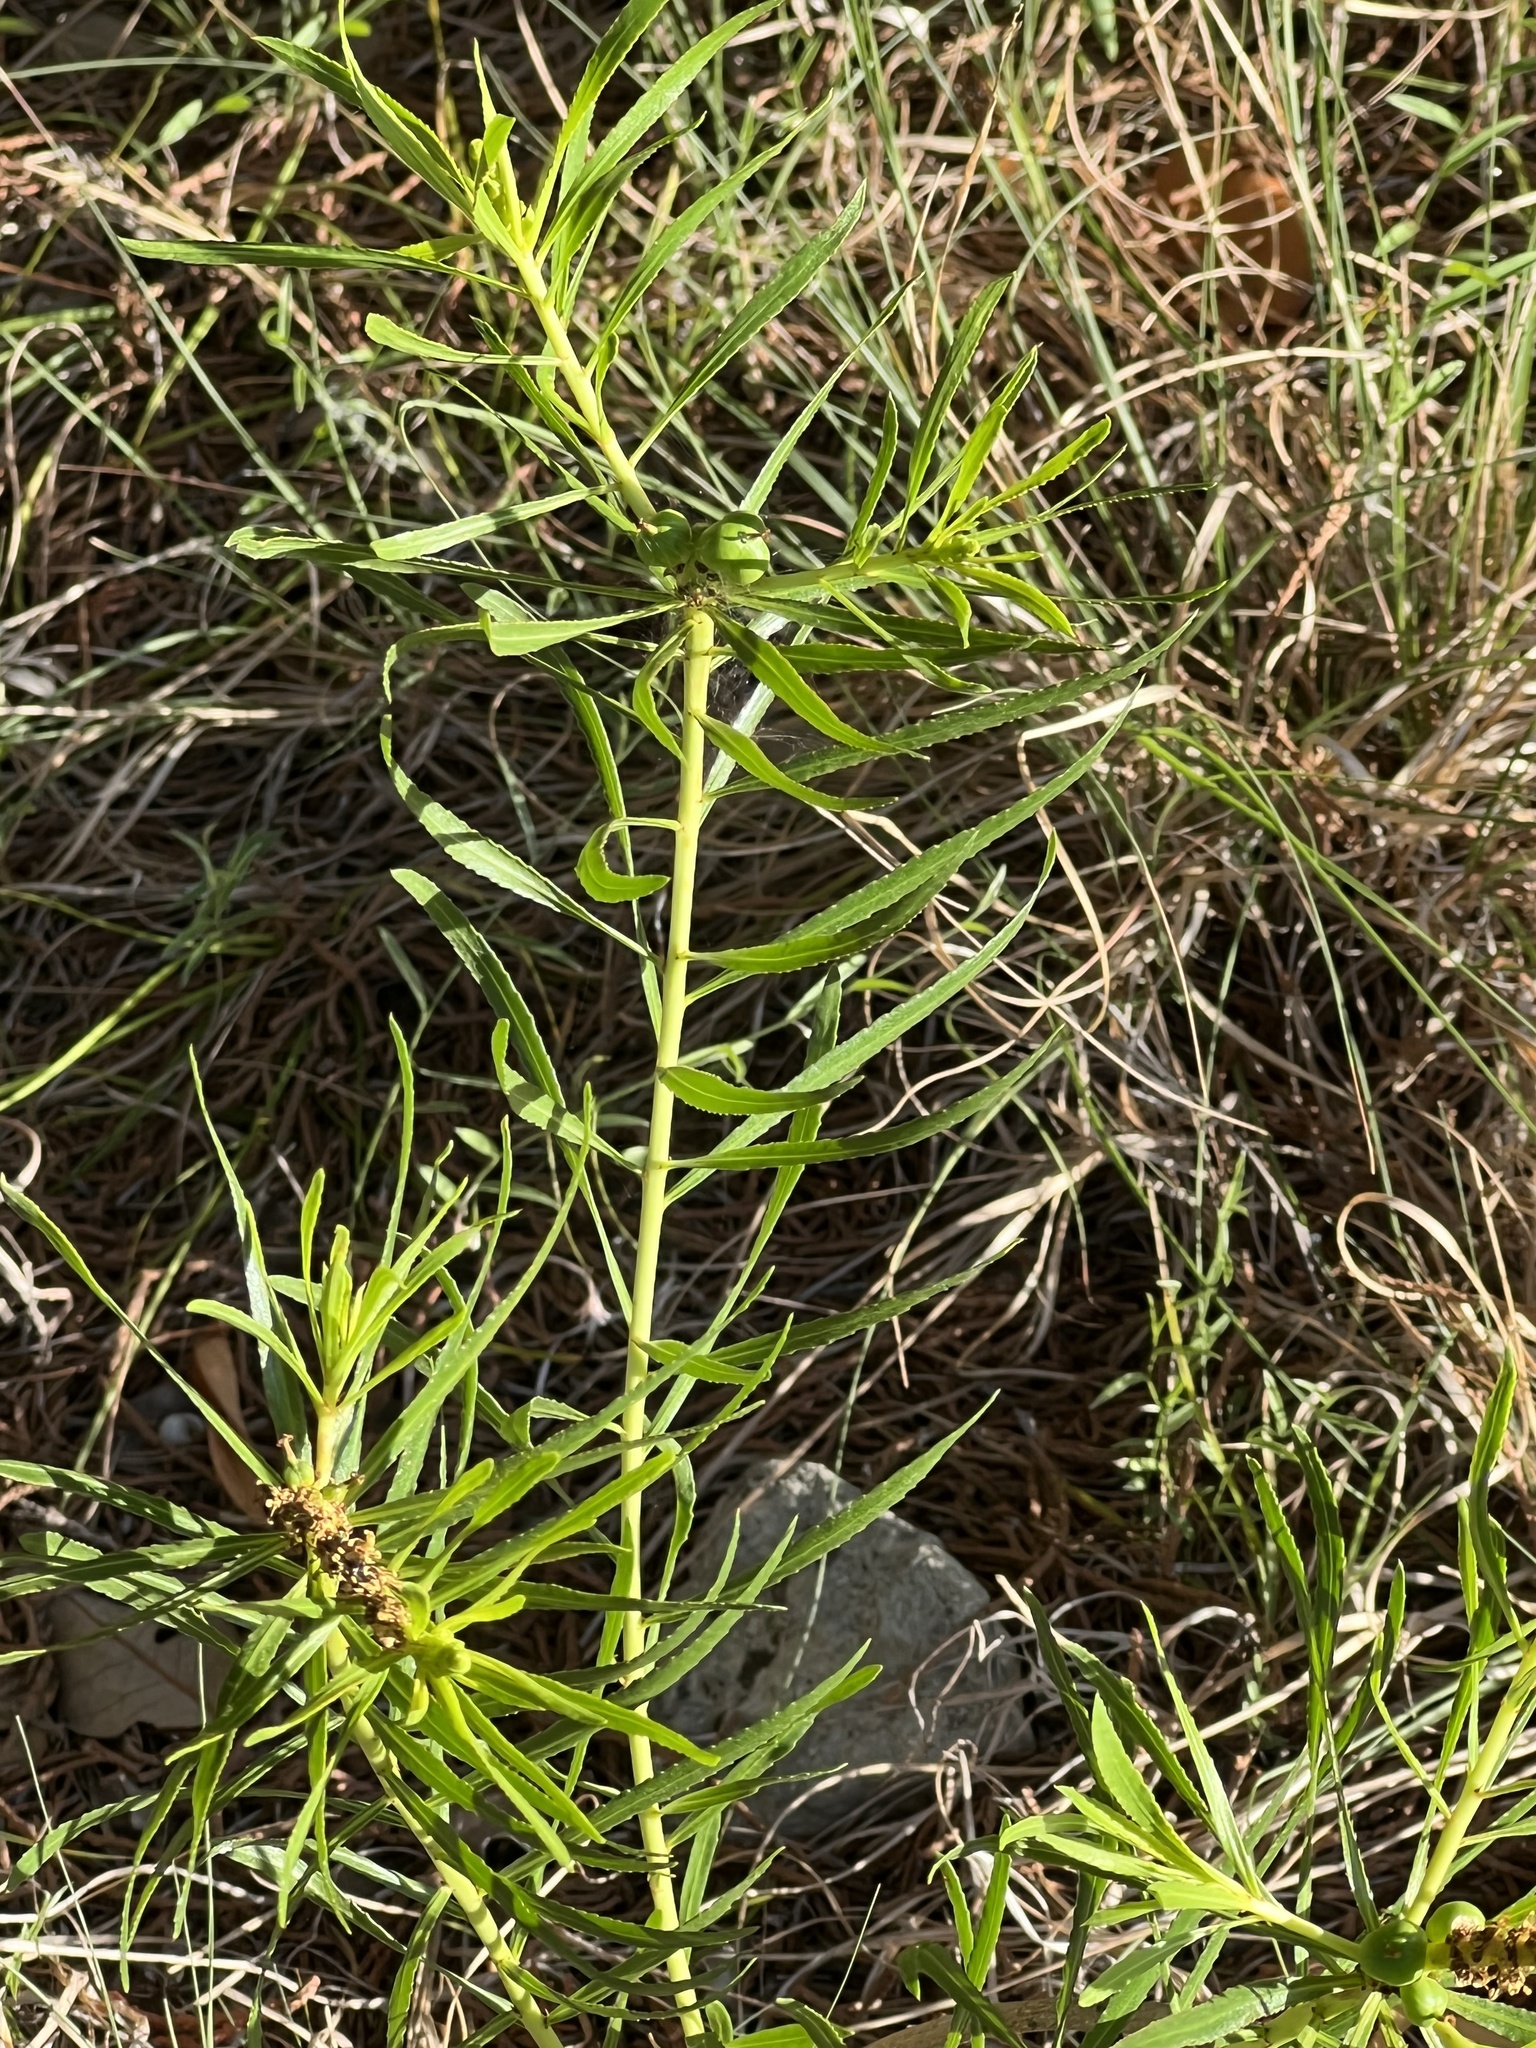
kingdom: Plantae
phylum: Tracheophyta
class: Magnoliopsida
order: Malpighiales
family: Euphorbiaceae
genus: Stillingia
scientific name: Stillingia texana
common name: Texas stillingia
